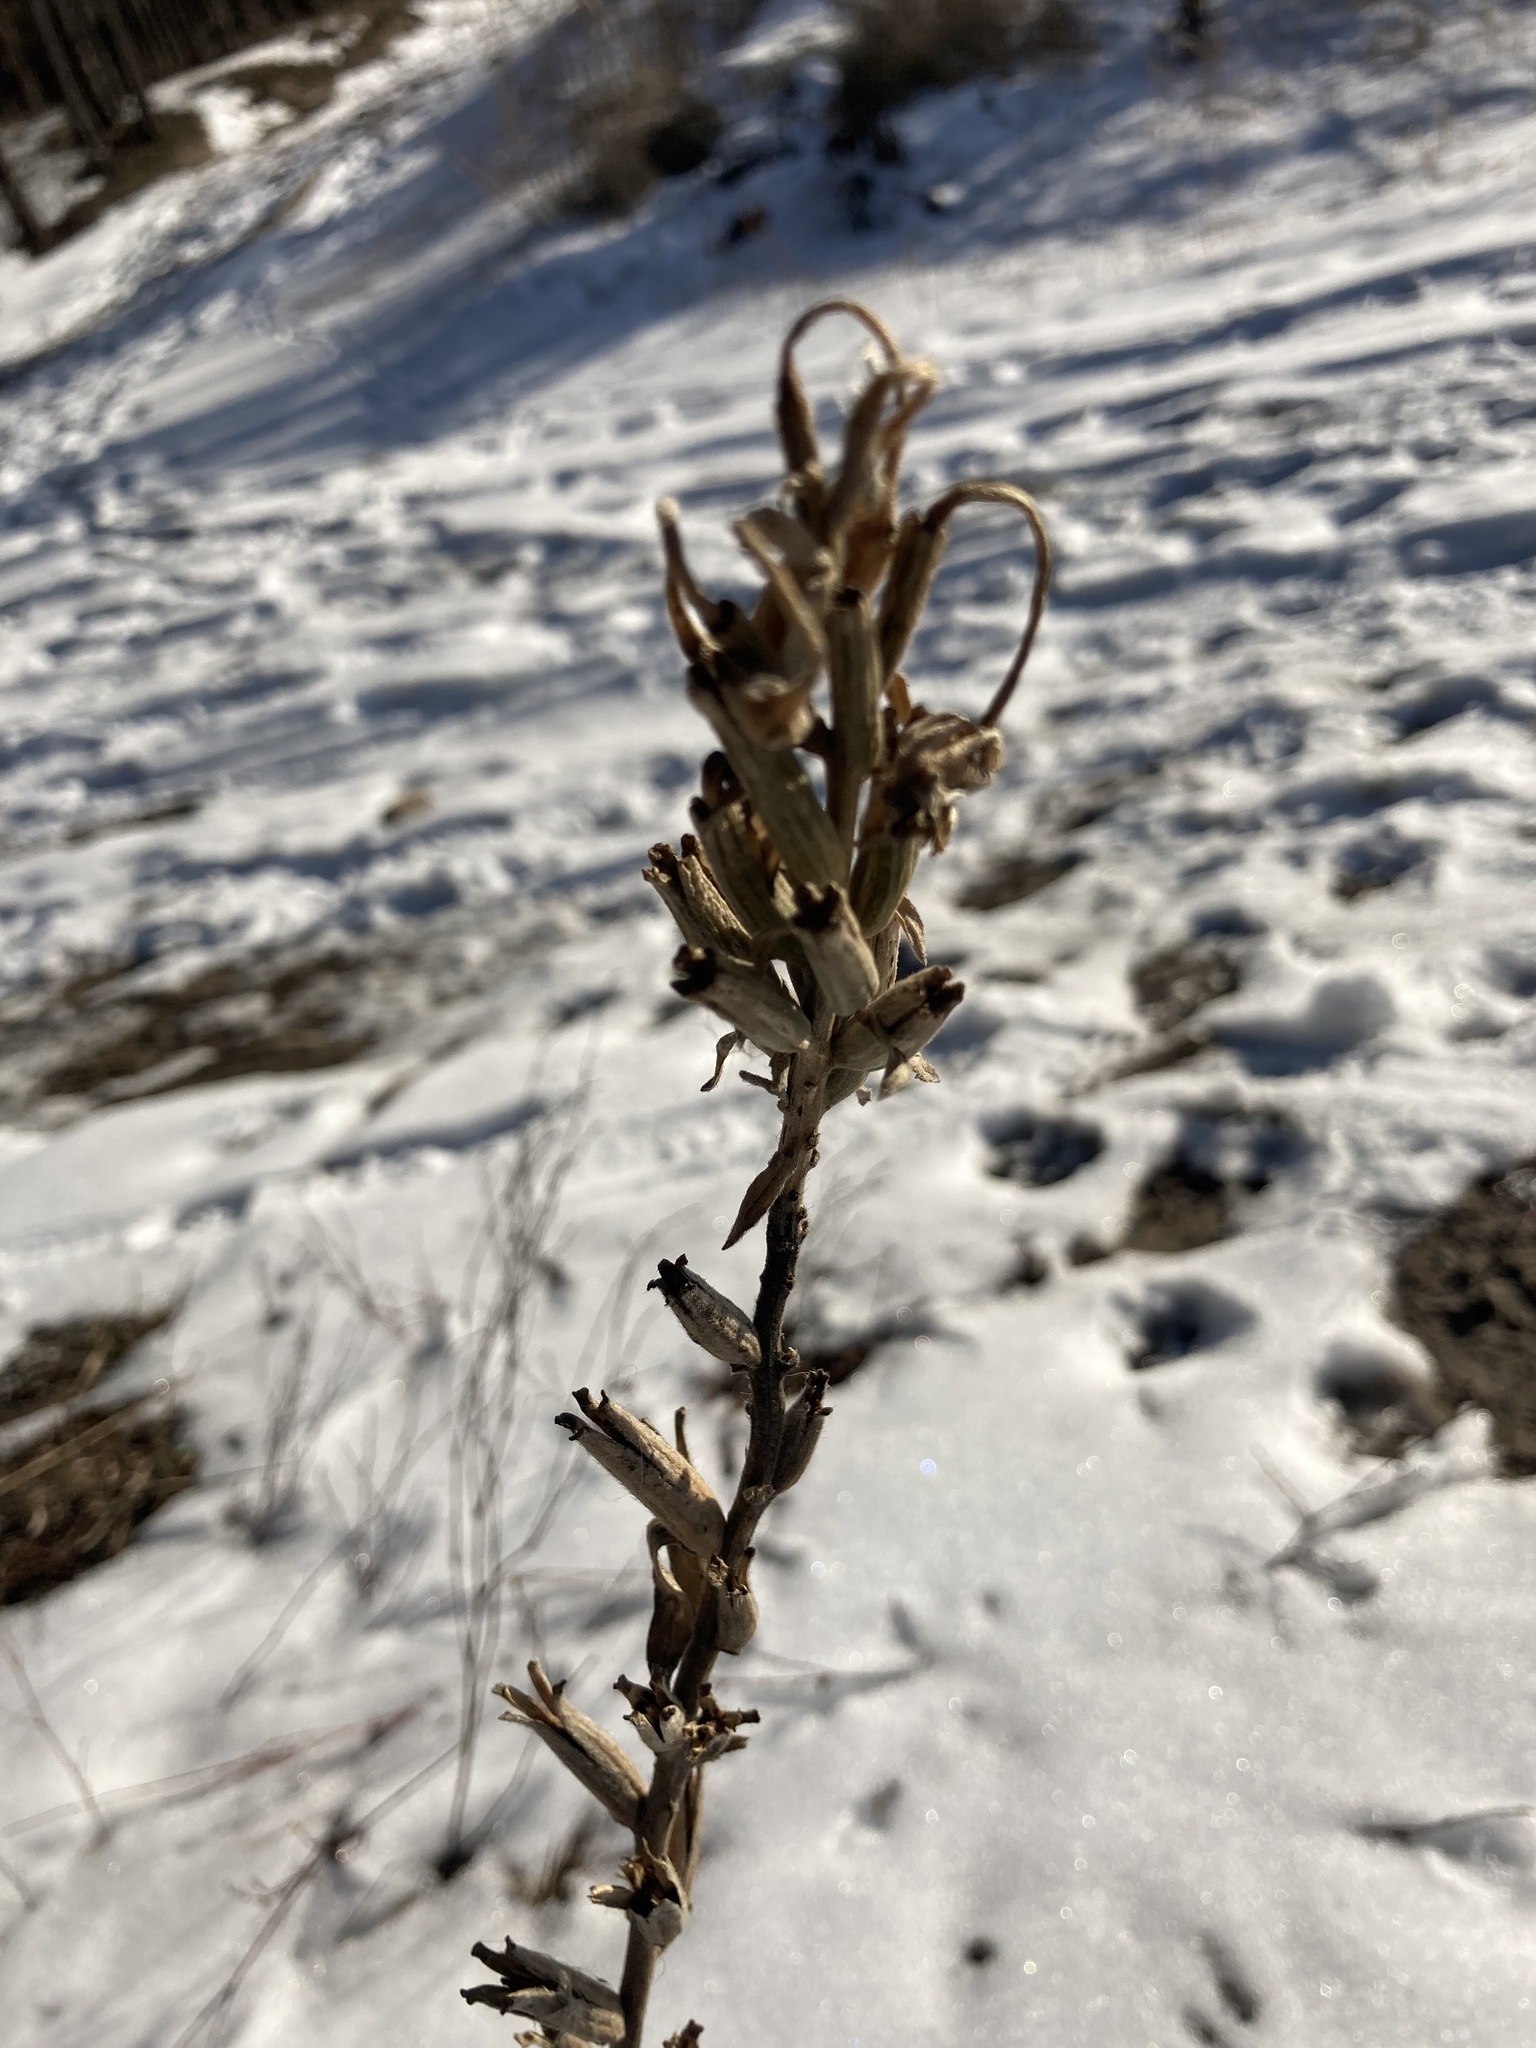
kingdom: Plantae
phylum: Tracheophyta
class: Magnoliopsida
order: Myrtales
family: Onagraceae
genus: Oenothera
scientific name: Oenothera
